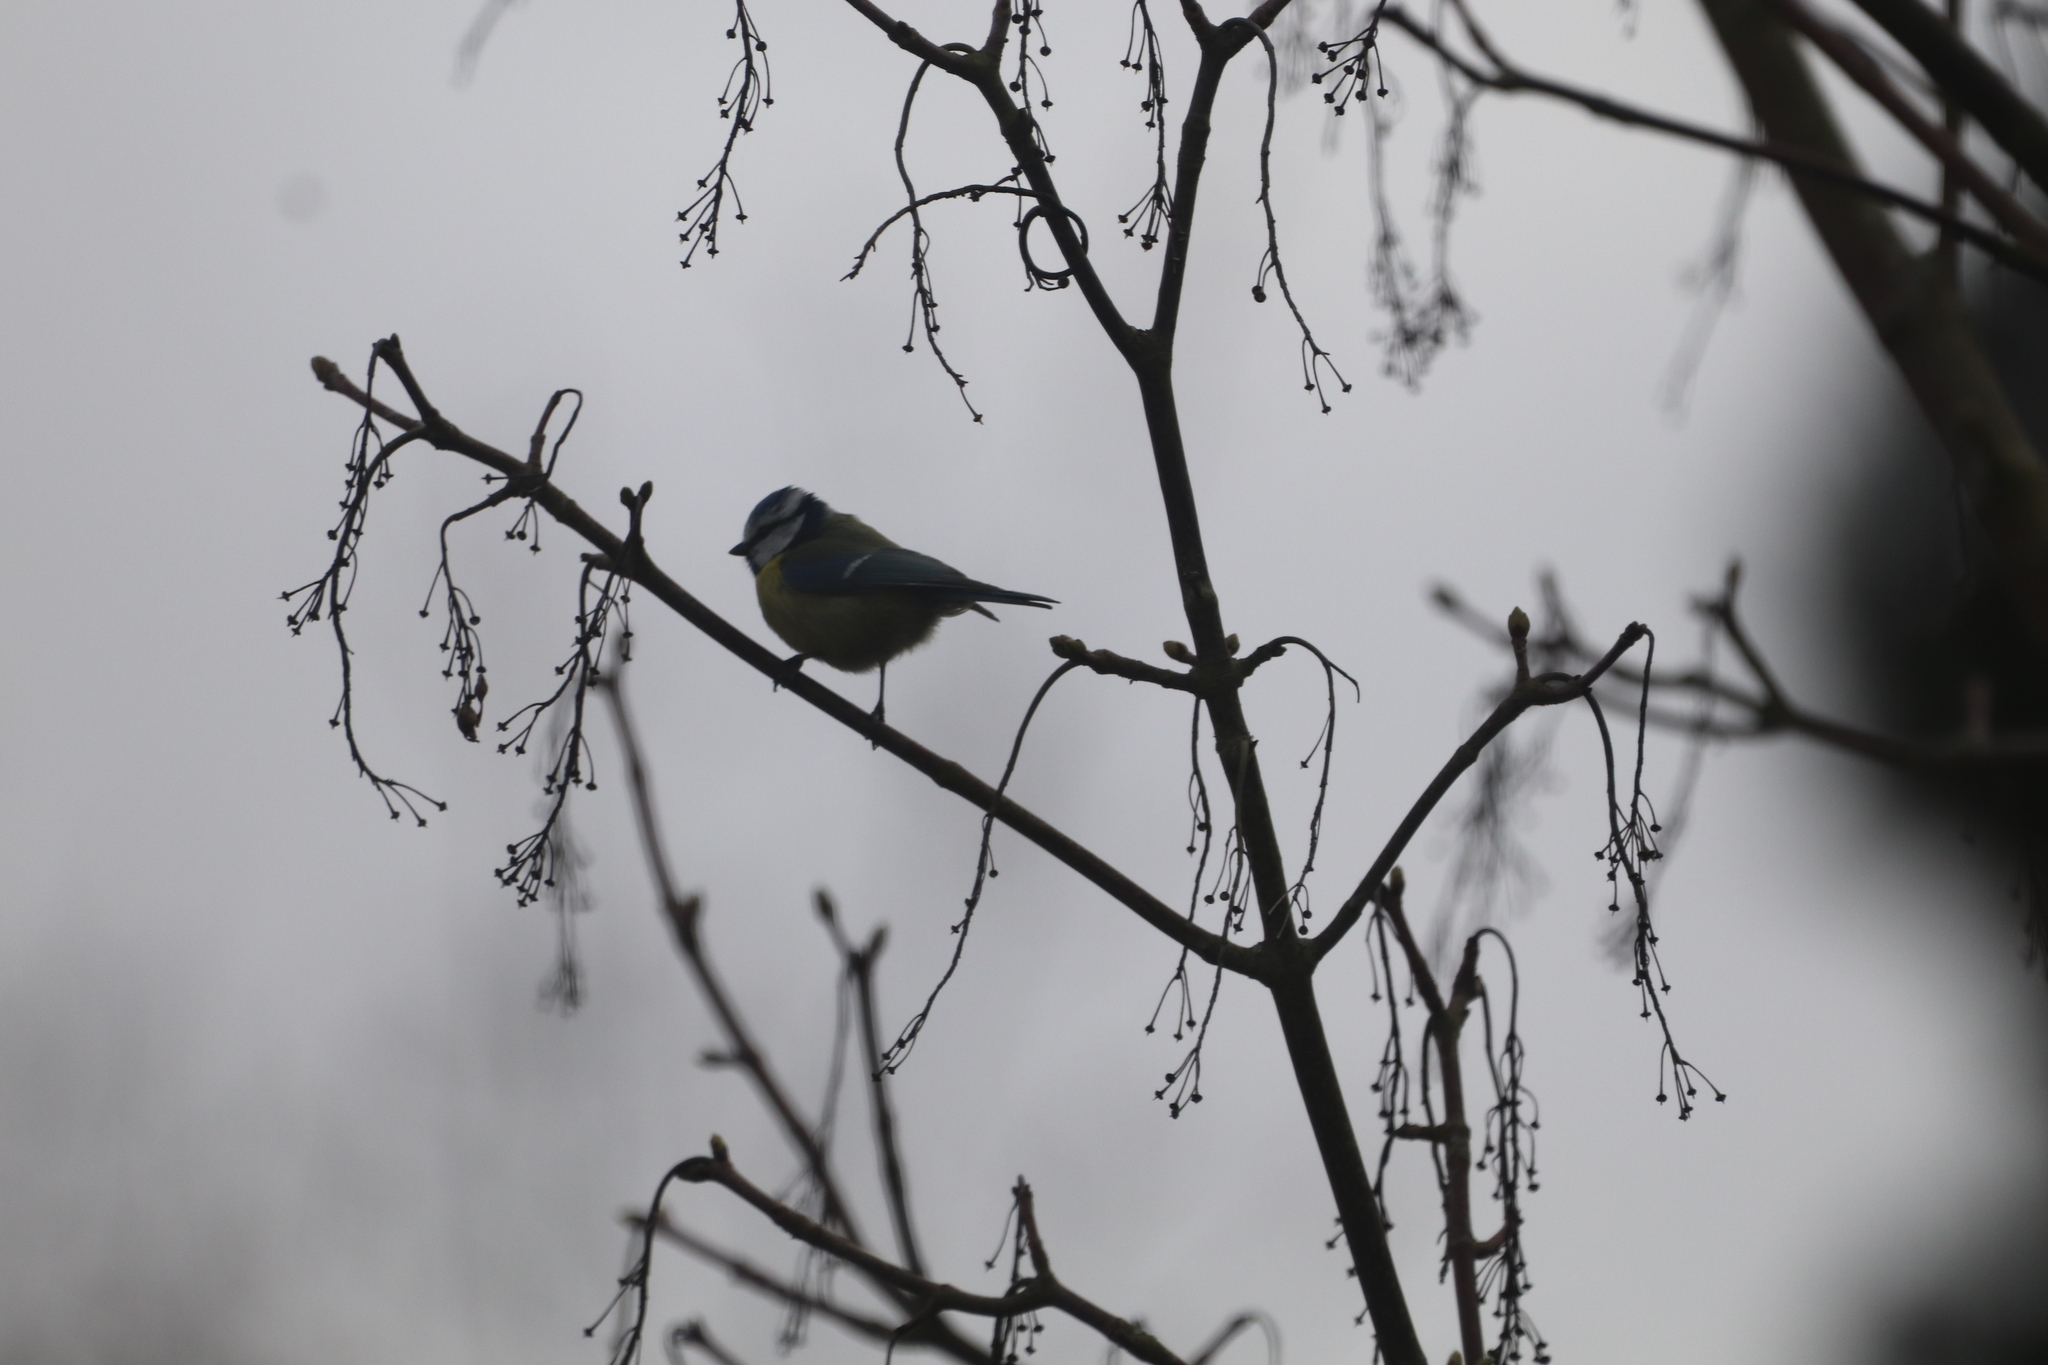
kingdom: Animalia
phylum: Chordata
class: Aves
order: Passeriformes
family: Paridae
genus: Cyanistes
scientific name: Cyanistes caeruleus
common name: Eurasian blue tit
